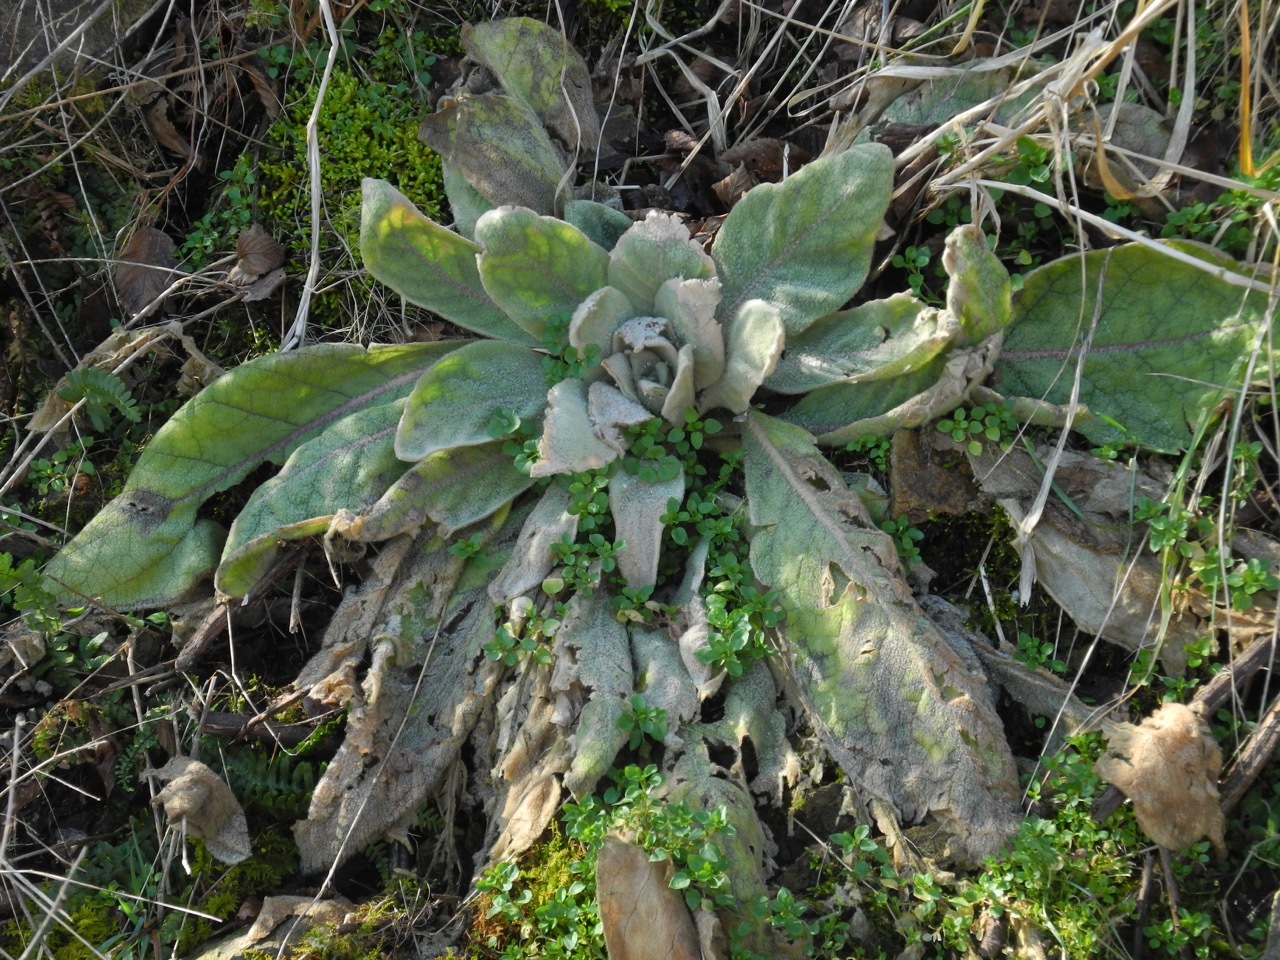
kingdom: Plantae
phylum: Tracheophyta
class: Magnoliopsida
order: Lamiales
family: Scrophulariaceae
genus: Verbascum
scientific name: Verbascum thapsus
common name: Common mullein
